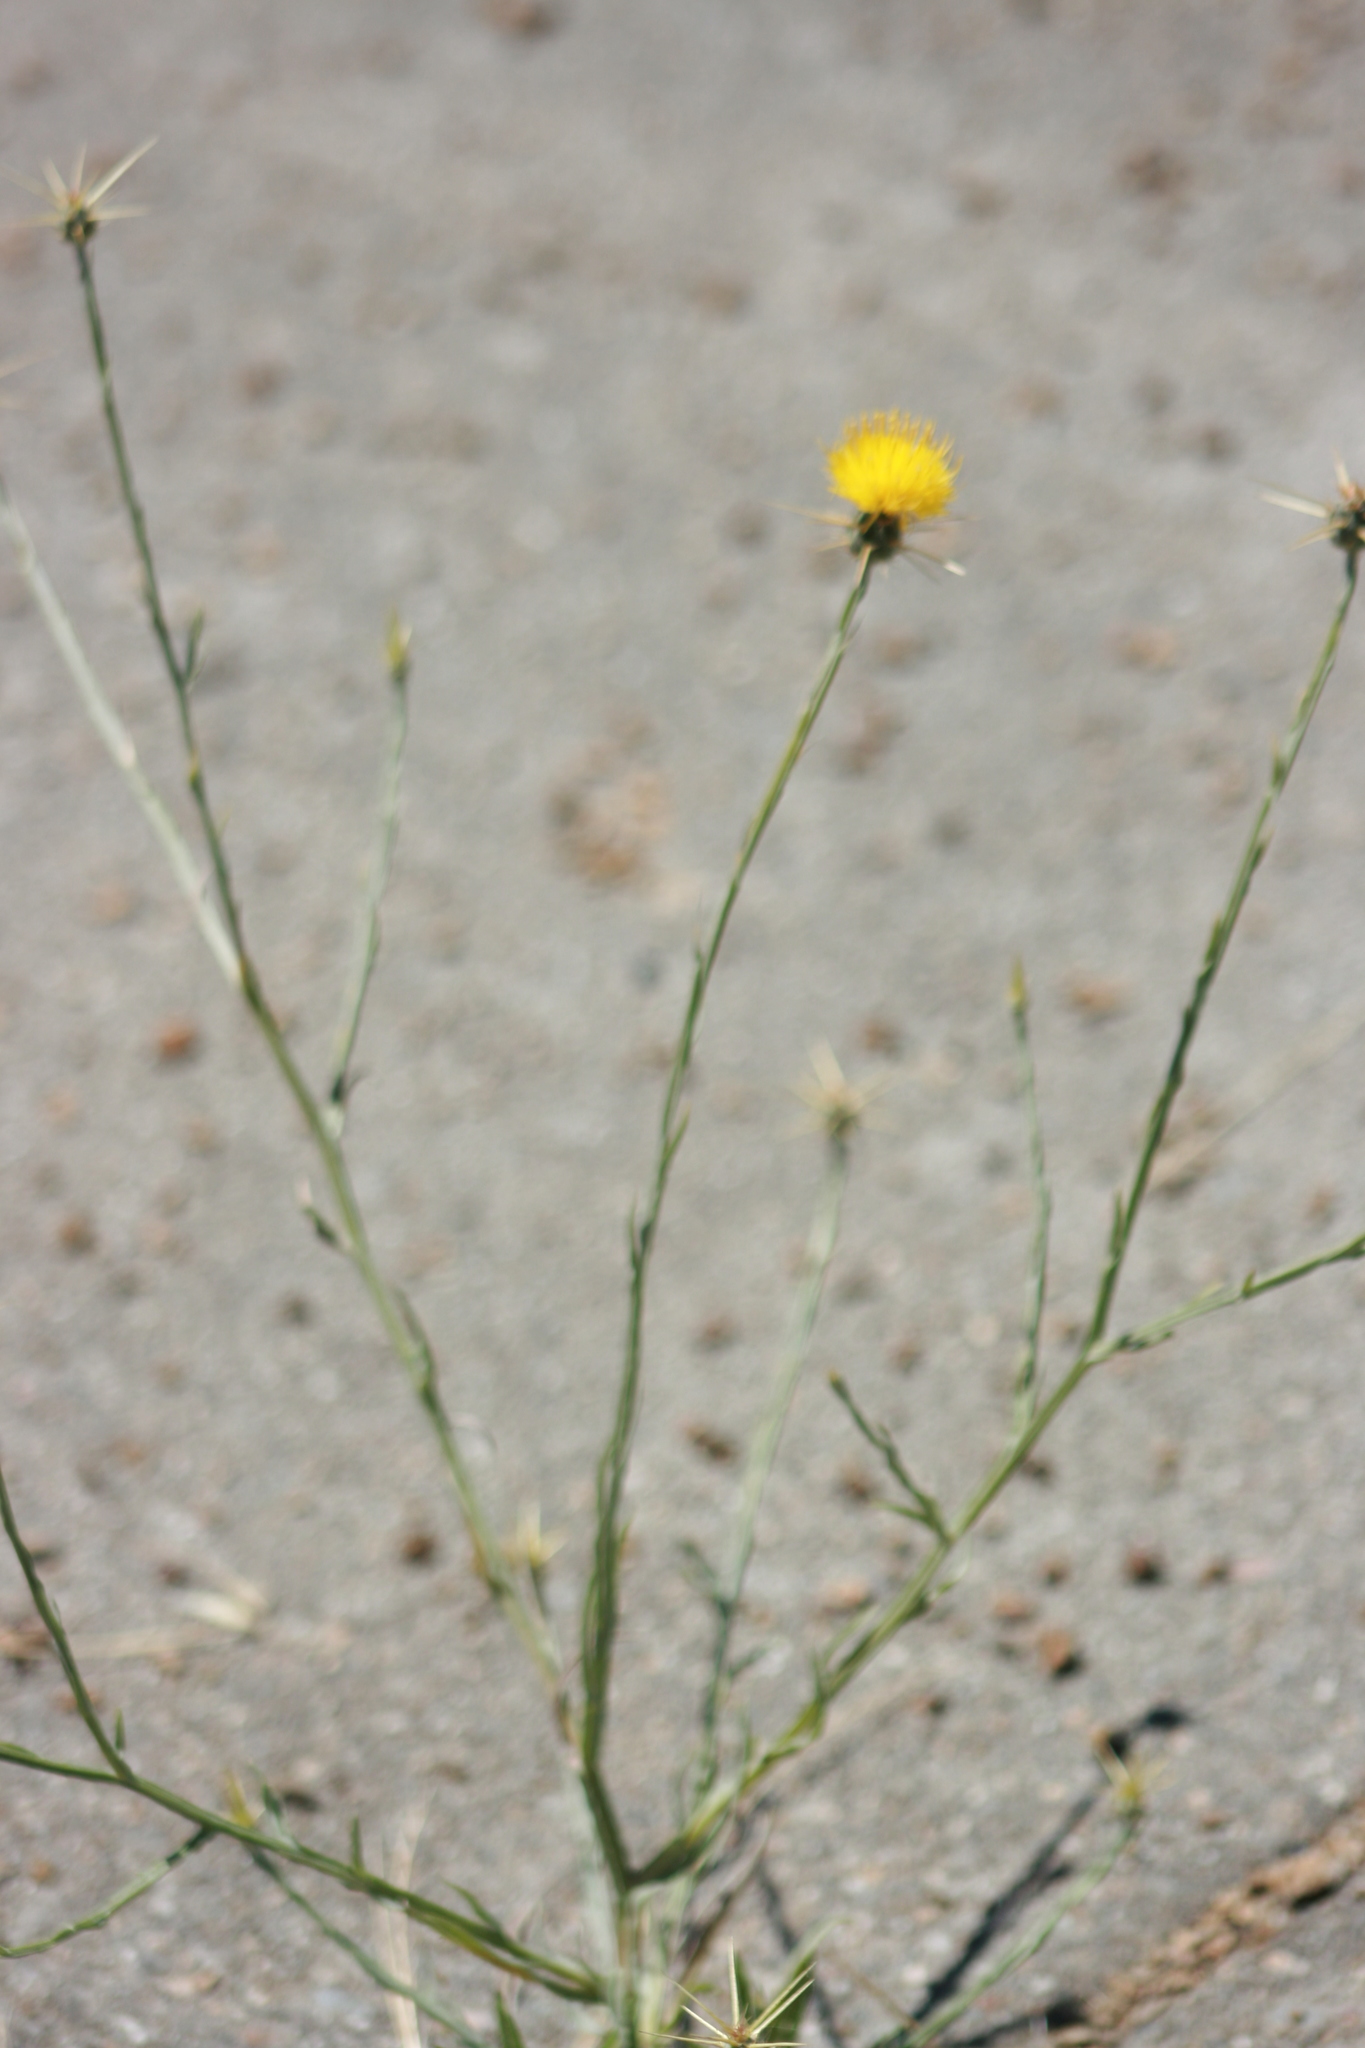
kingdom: Plantae
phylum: Tracheophyta
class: Magnoliopsida
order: Asterales
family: Asteraceae
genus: Centaurea
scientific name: Centaurea solstitialis
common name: Yellow star-thistle
